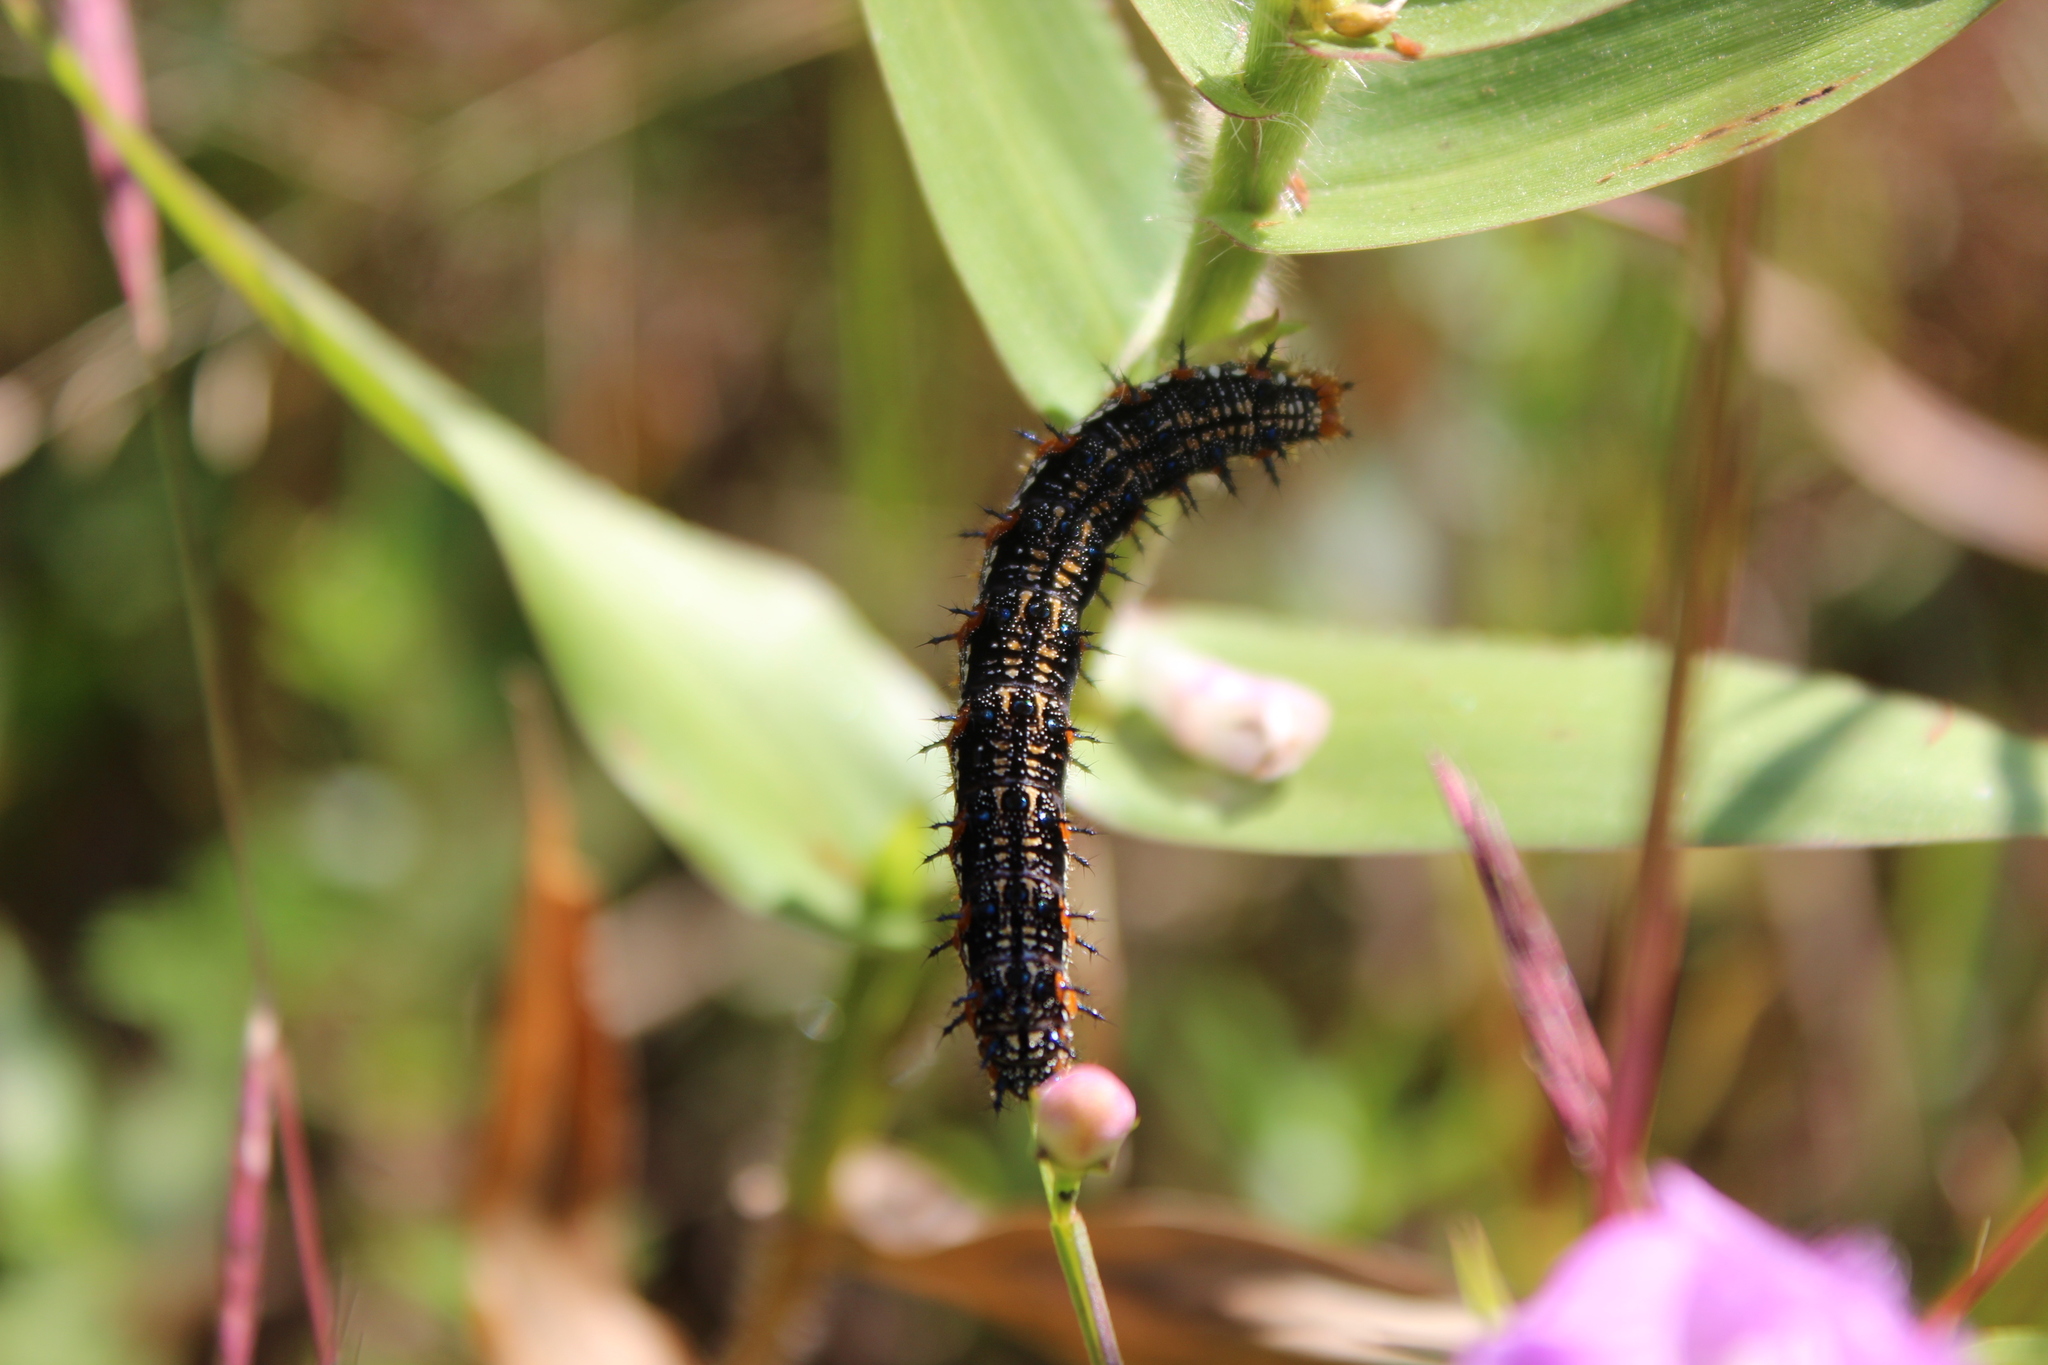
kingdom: Animalia
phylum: Arthropoda
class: Insecta
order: Lepidoptera
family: Nymphalidae
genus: Junonia
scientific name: Junonia coenia
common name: Common buckeye
